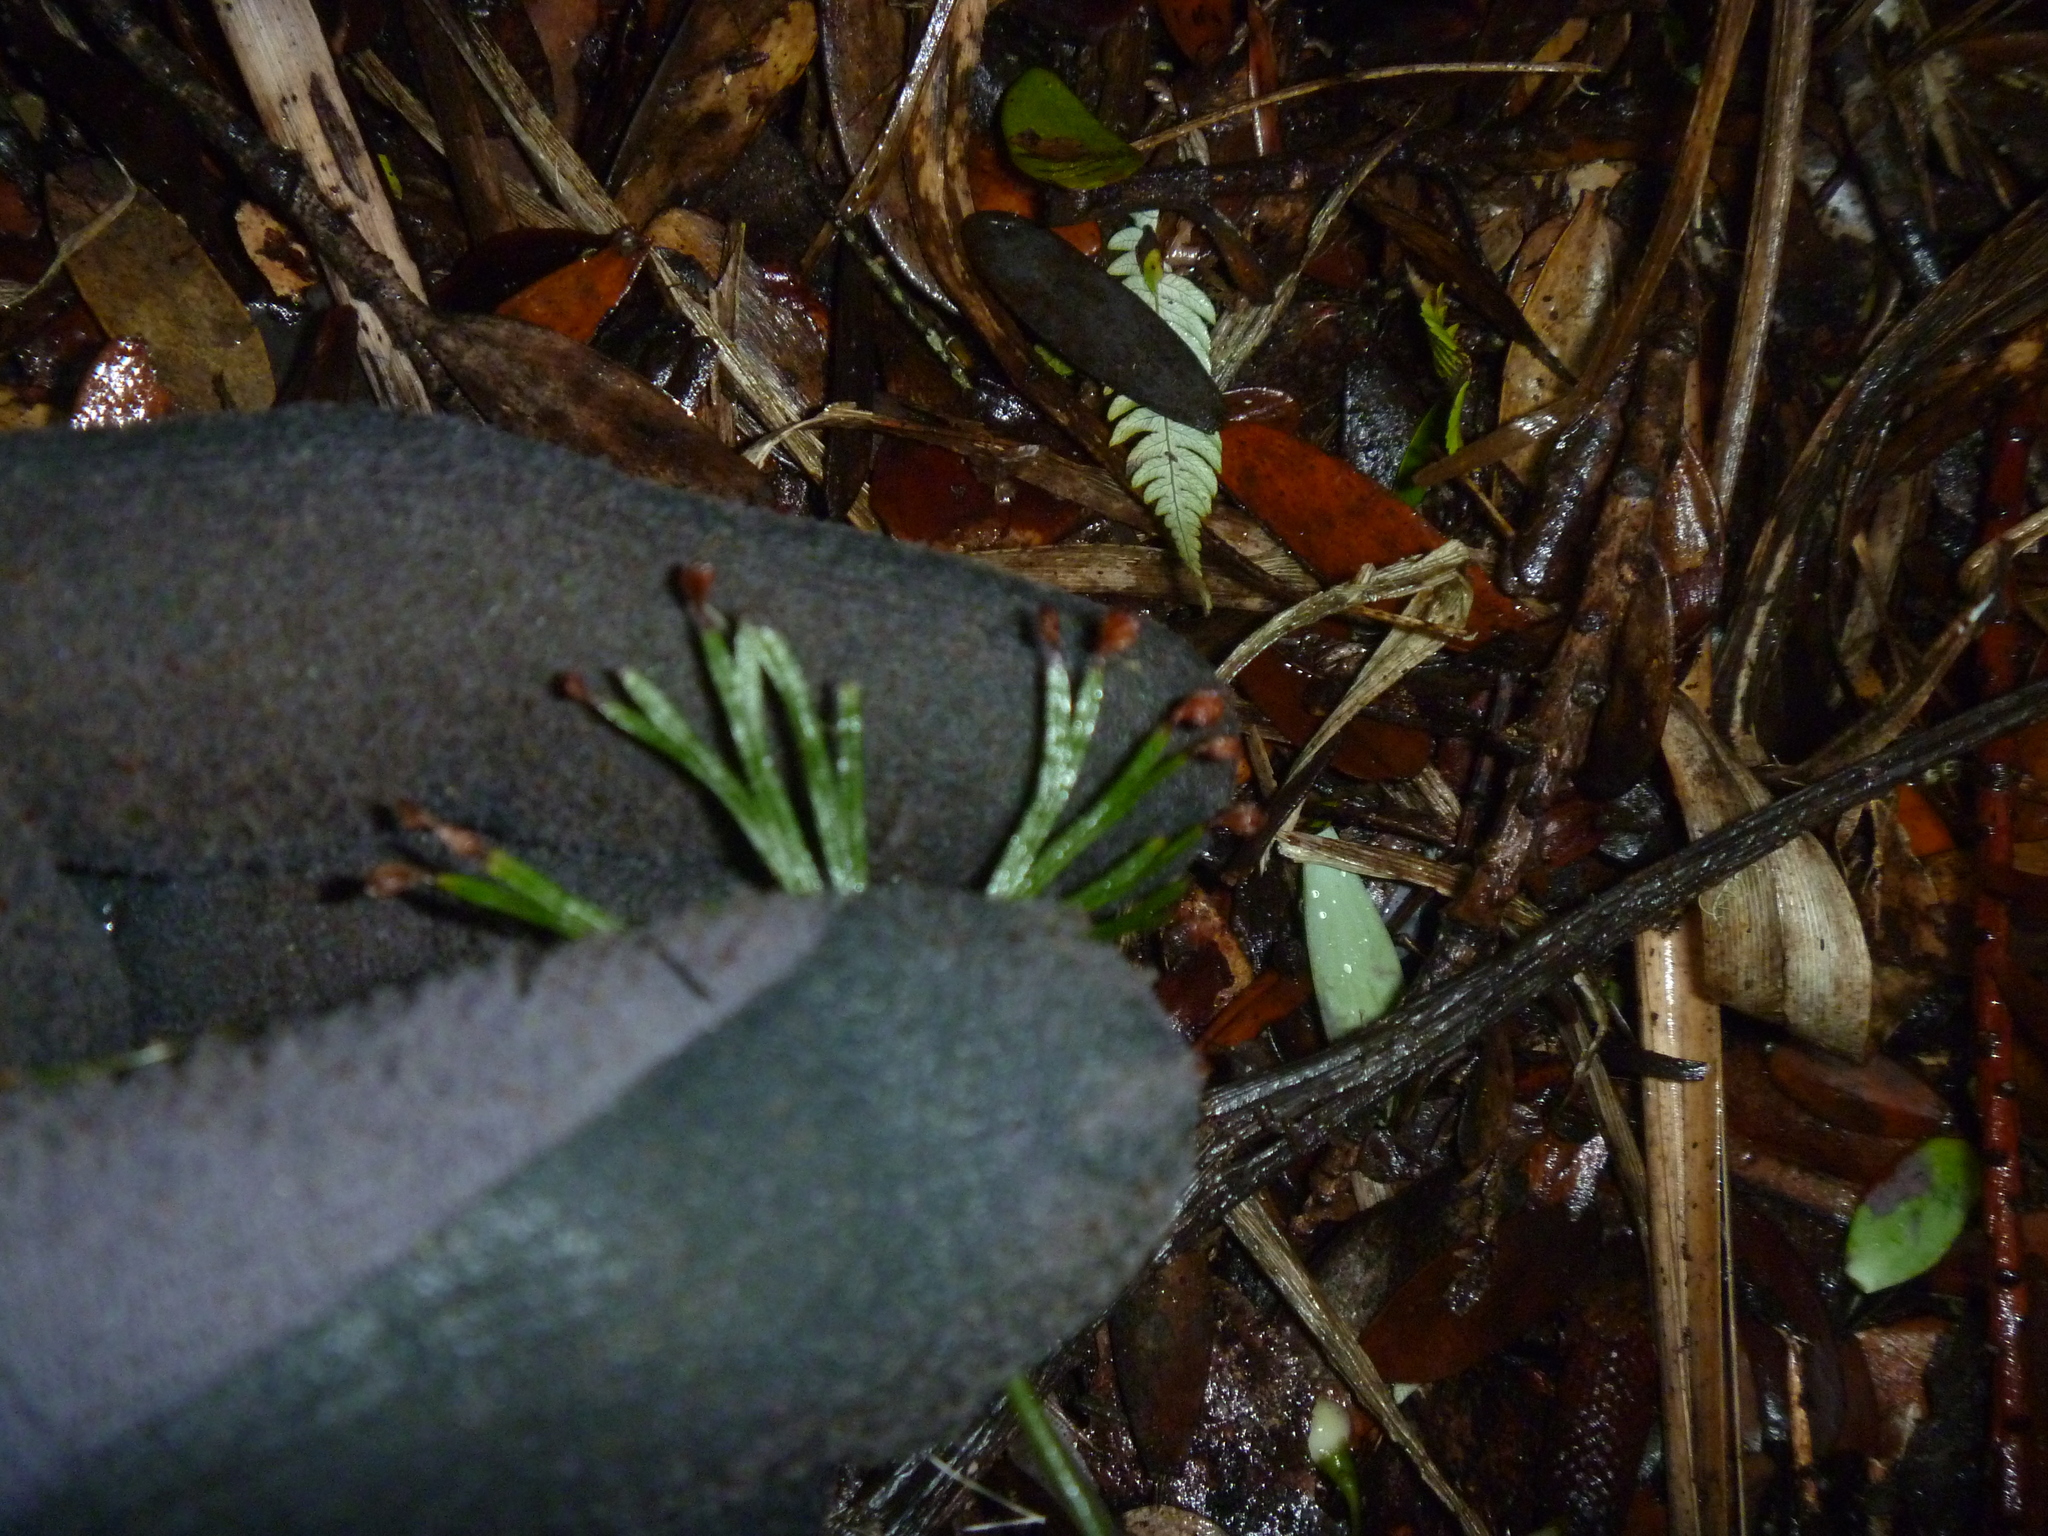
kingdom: Plantae
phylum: Tracheophyta
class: Polypodiopsida
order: Schizaeales
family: Schizaeaceae
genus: Schizaea
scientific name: Schizaea dichotoma
